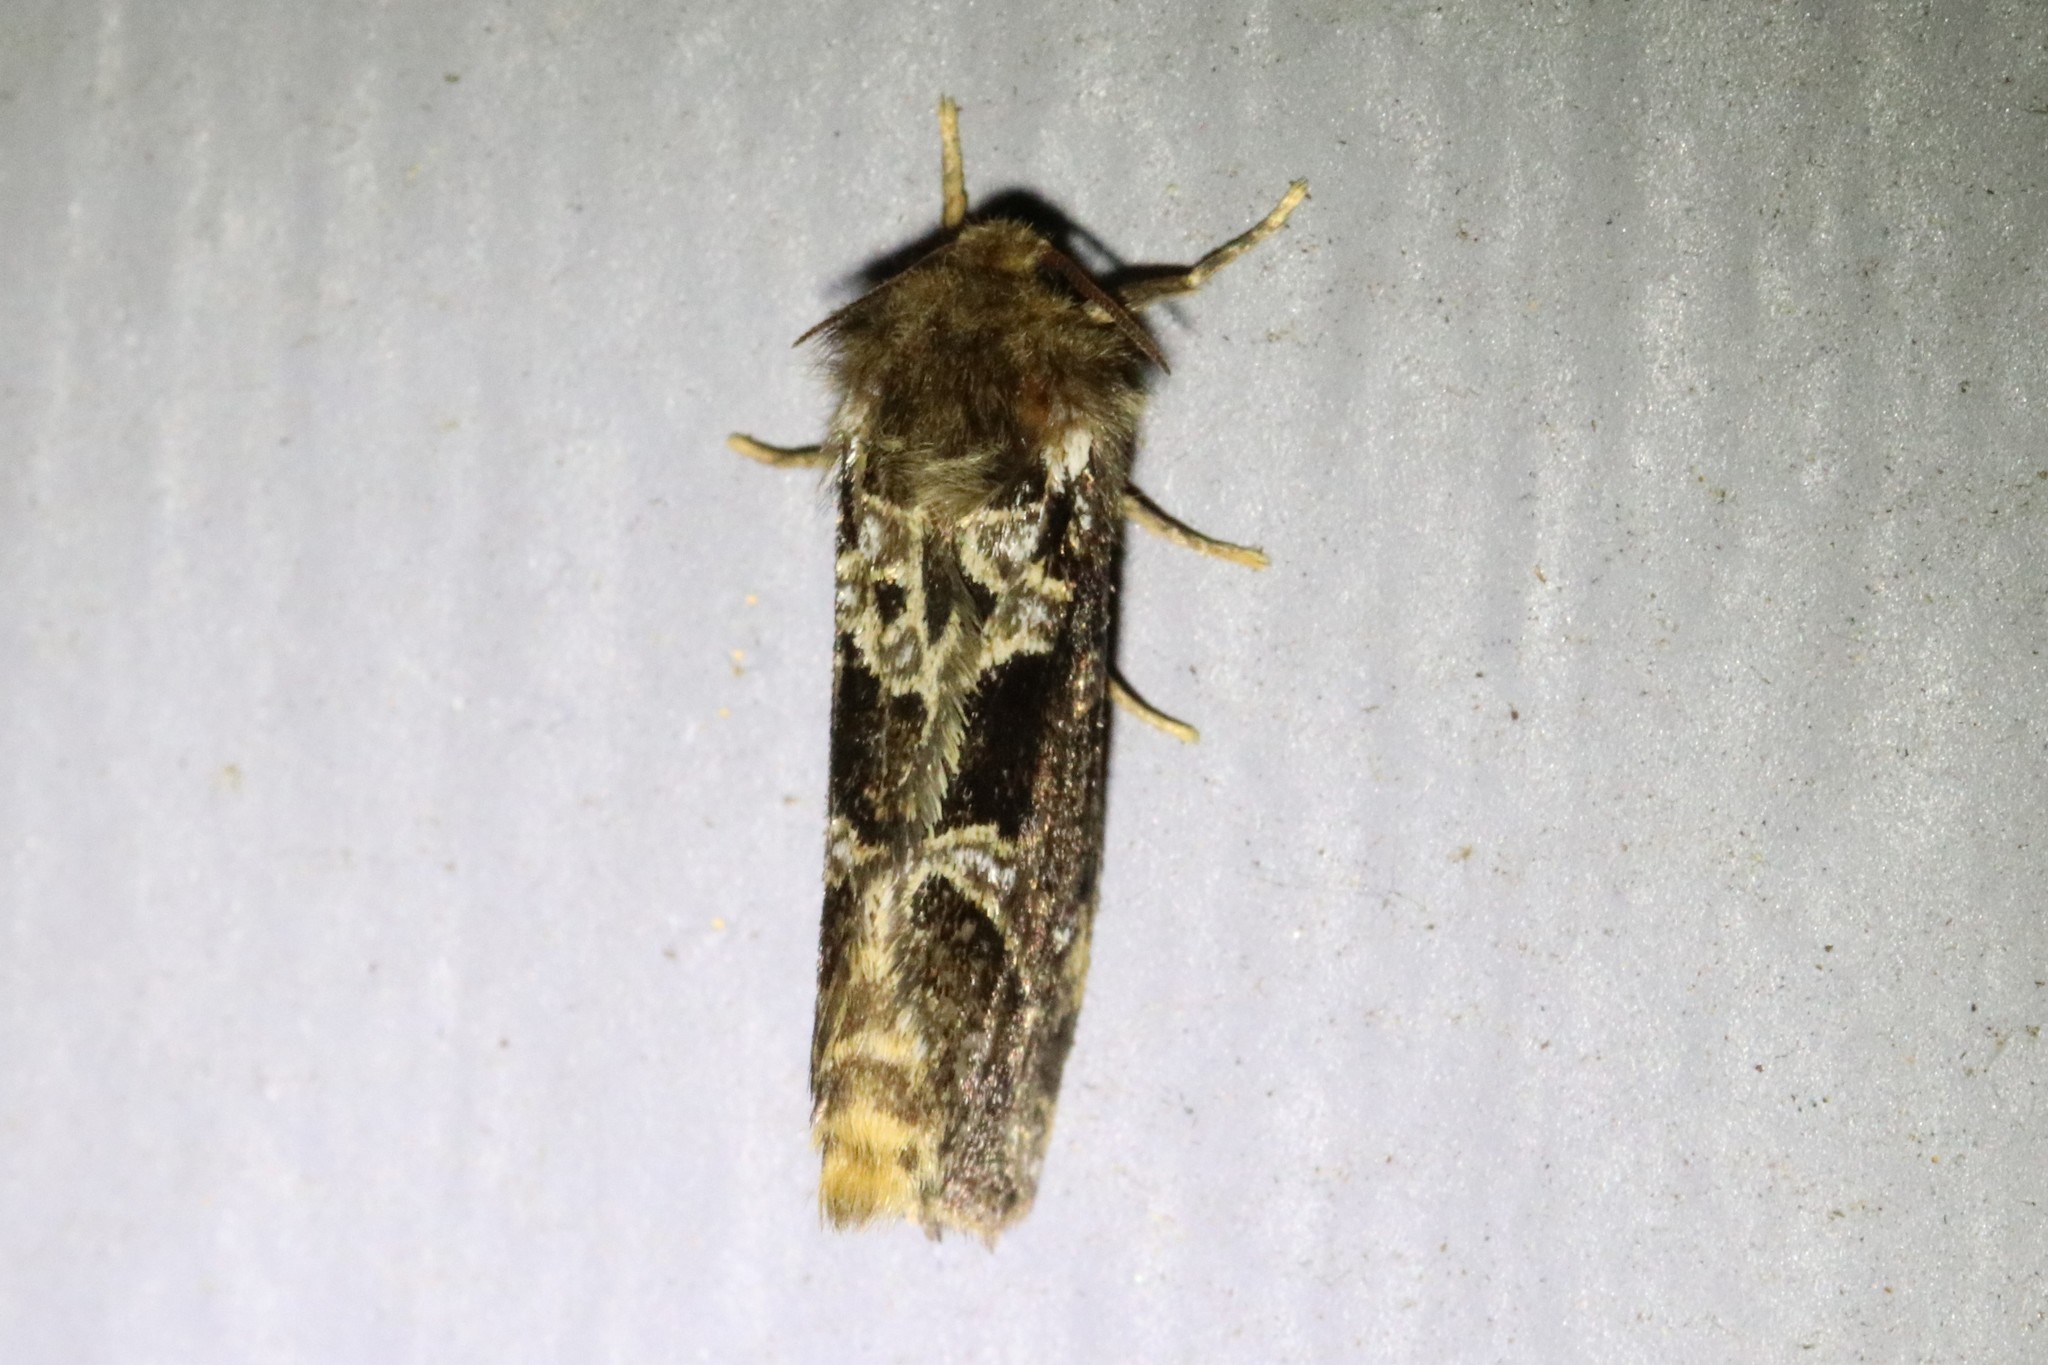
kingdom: Animalia
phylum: Arthropoda
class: Insecta
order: Lepidoptera
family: Hepialidae
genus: Korscheltellus
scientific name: Korscheltellus gracilis
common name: Conifer swift moth
